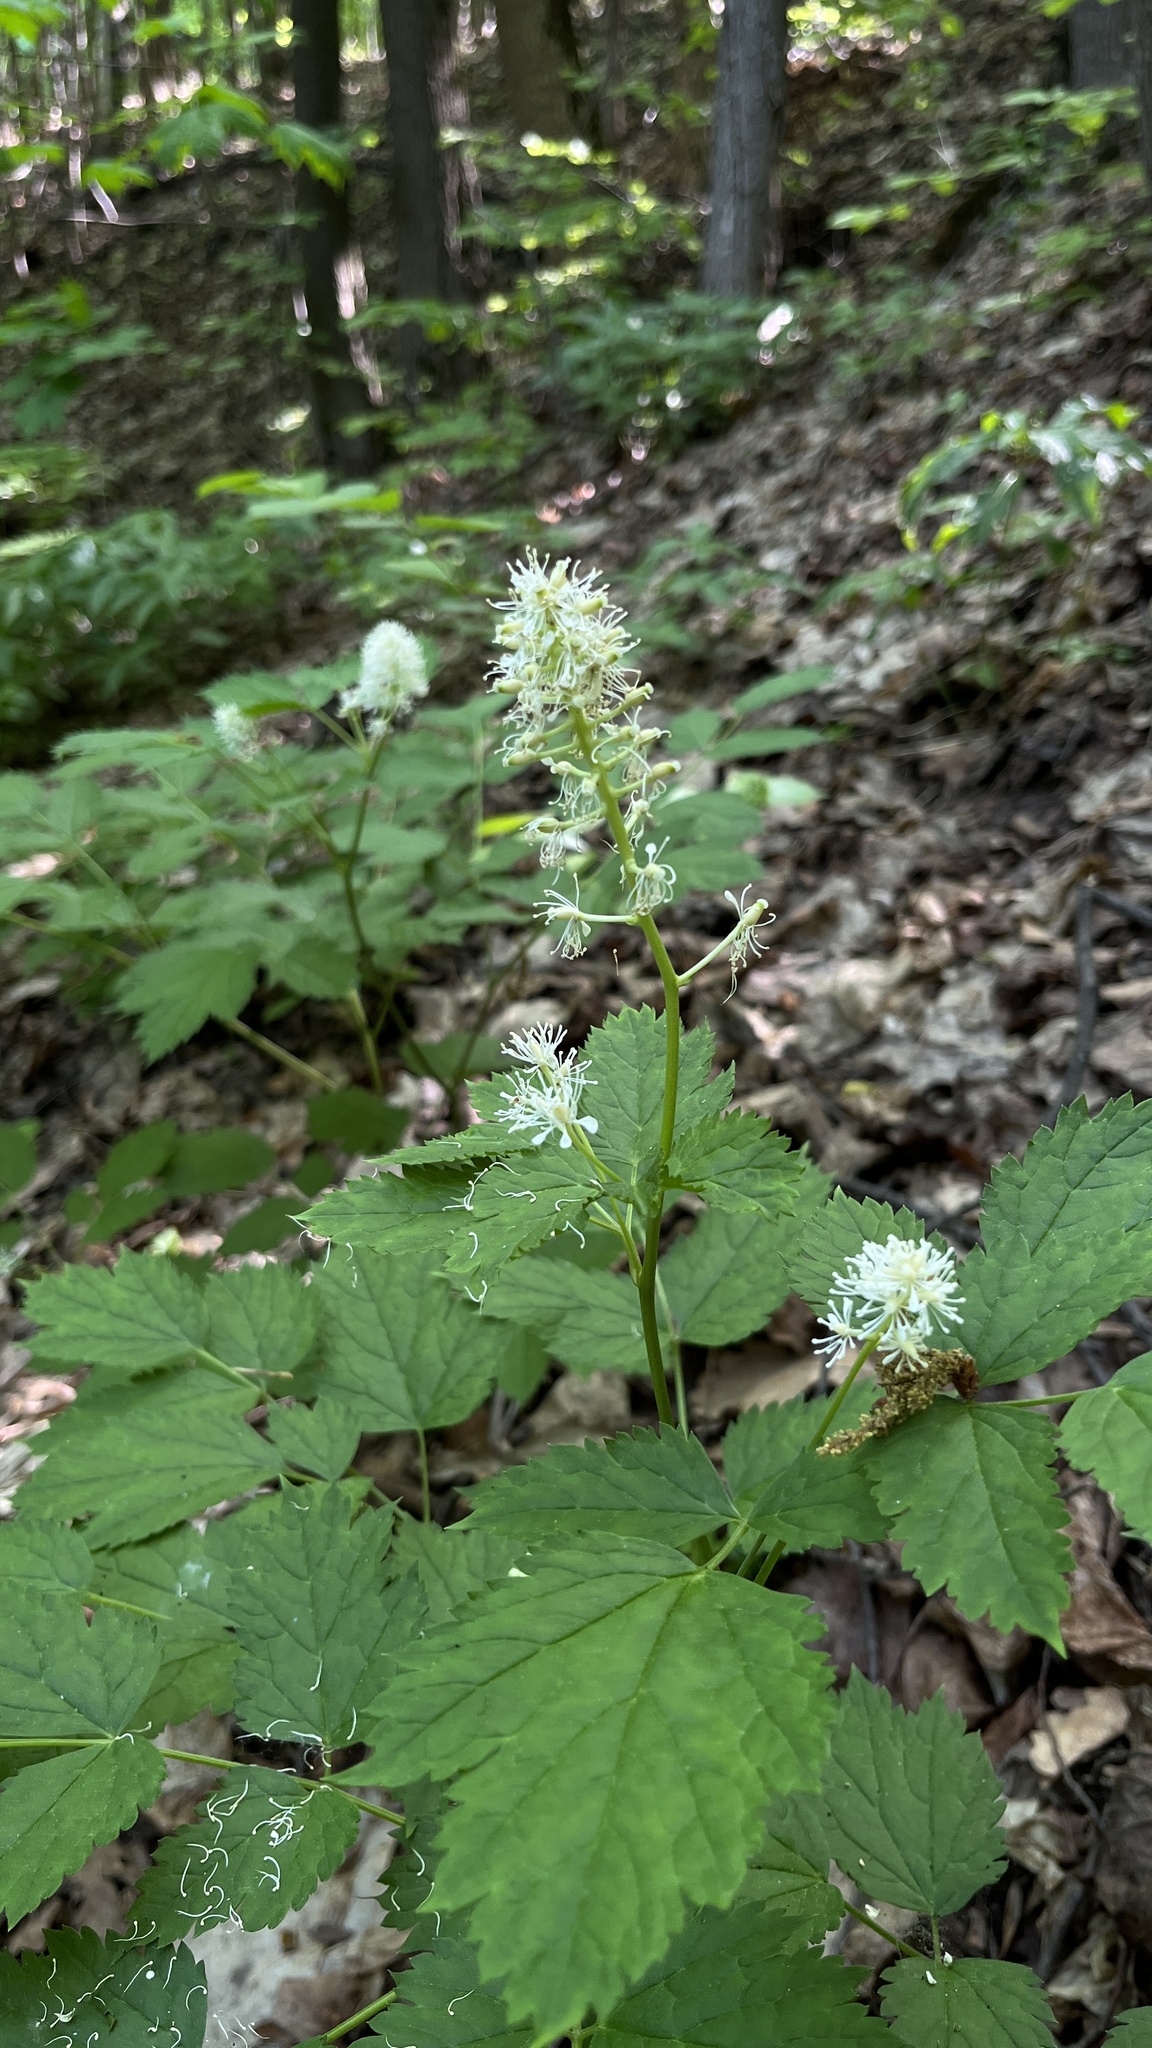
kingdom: Plantae
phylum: Tracheophyta
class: Magnoliopsida
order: Ranunculales
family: Ranunculaceae
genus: Actaea
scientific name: Actaea spicata
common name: Baneberry
